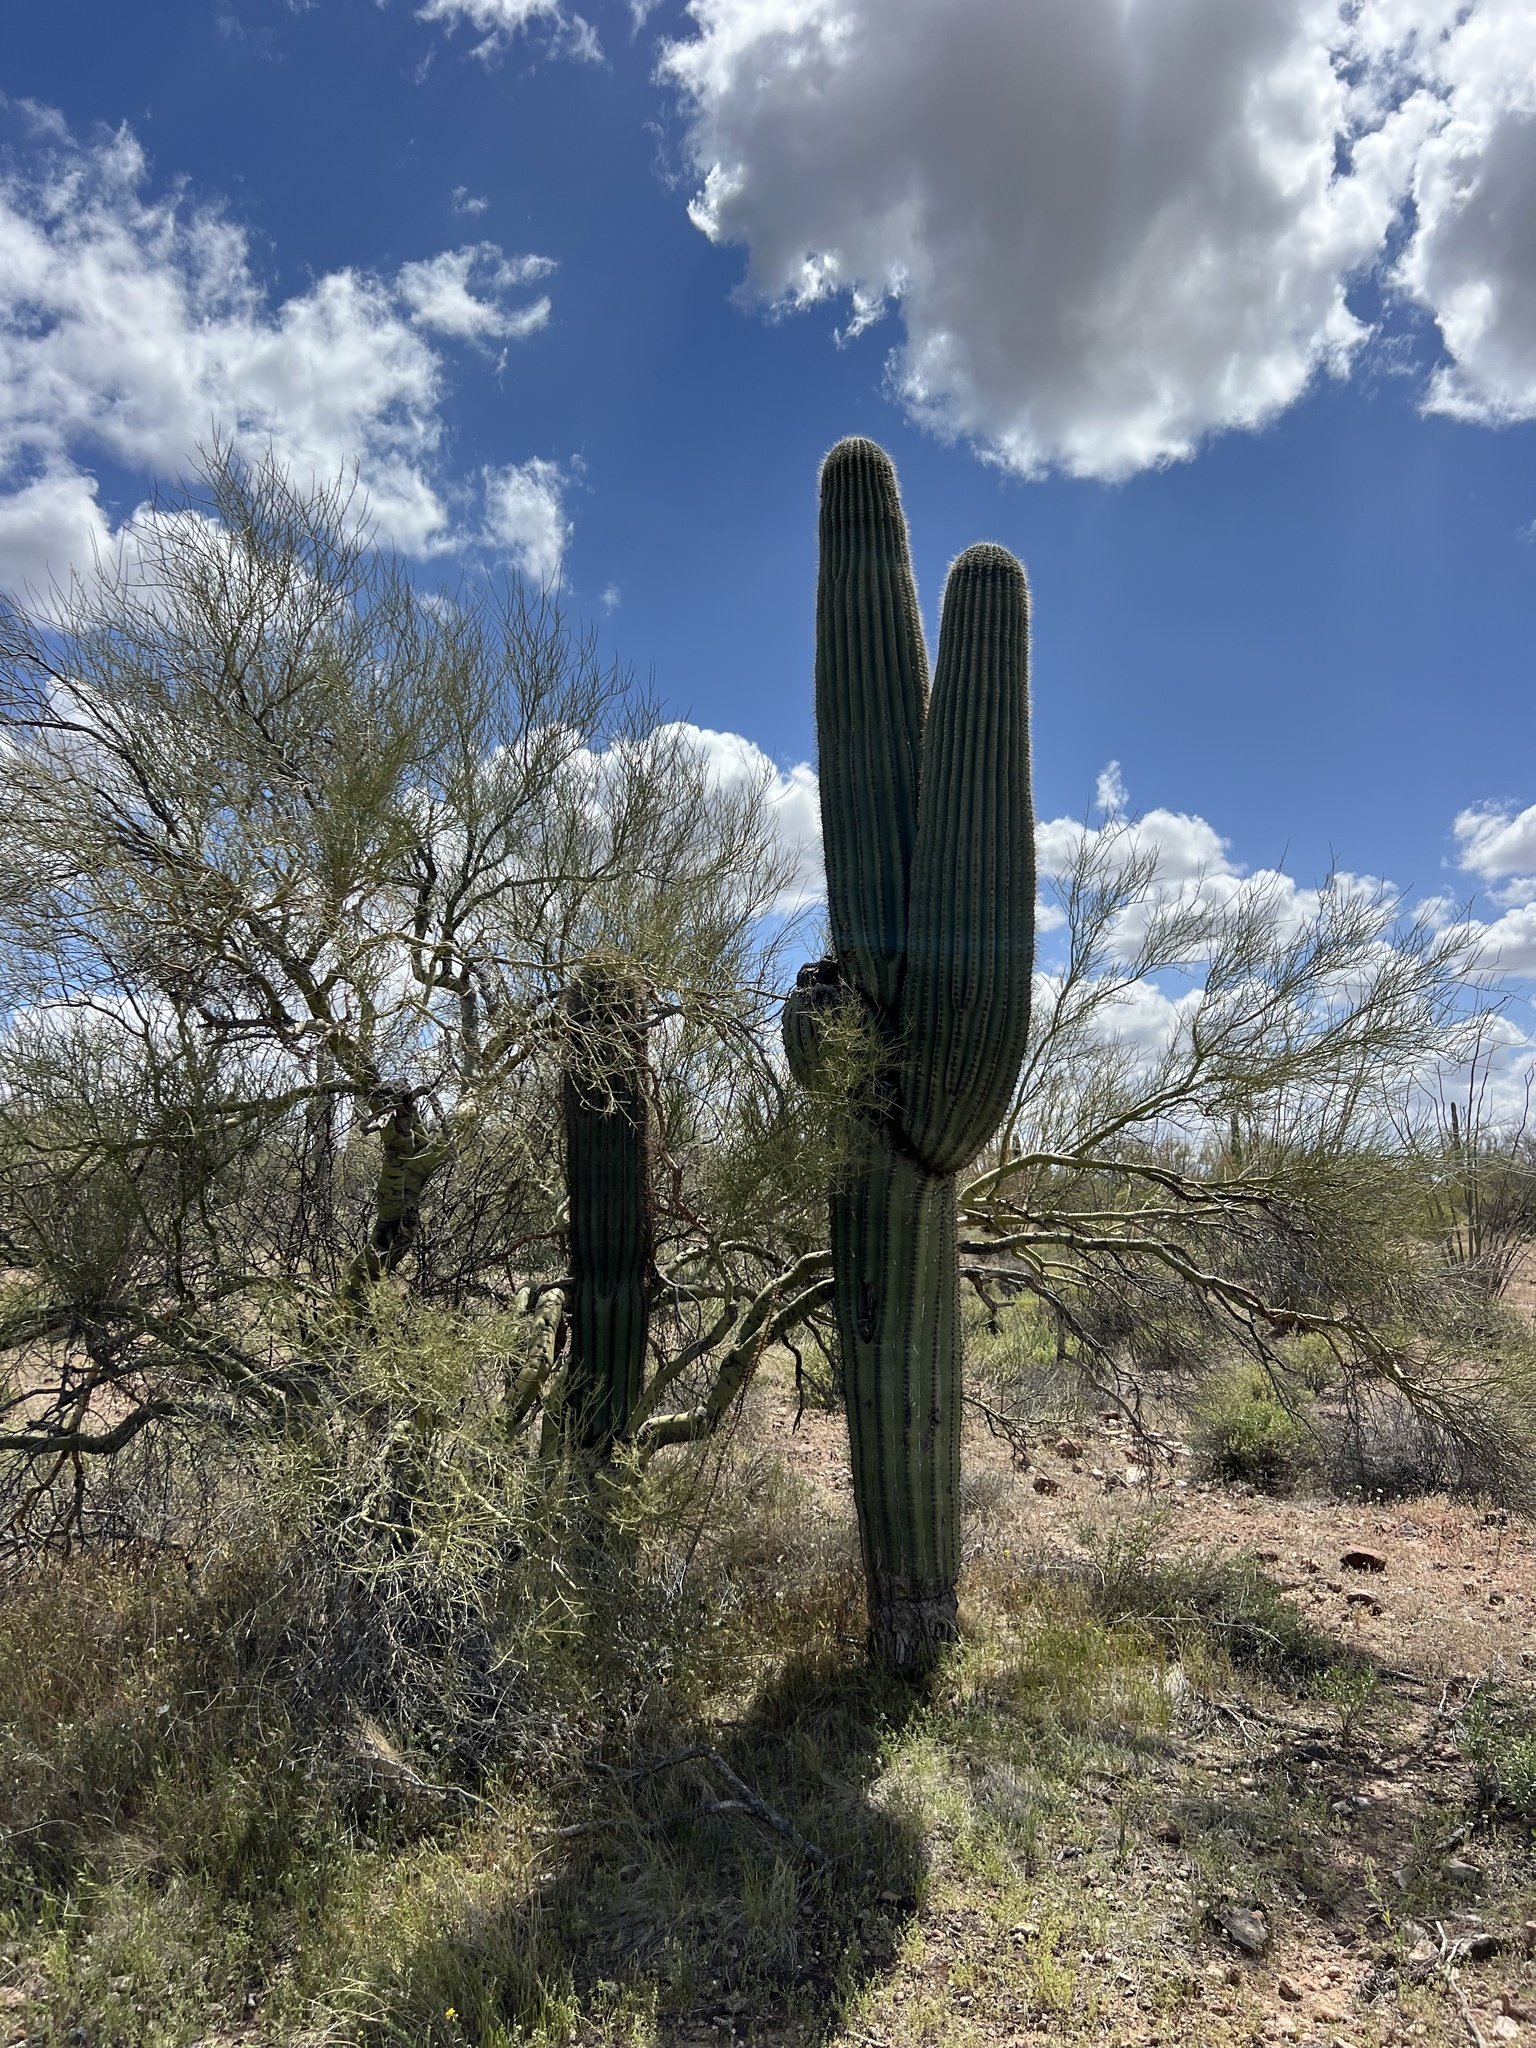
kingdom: Plantae
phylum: Tracheophyta
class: Magnoliopsida
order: Caryophyllales
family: Cactaceae
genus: Carnegiea
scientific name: Carnegiea gigantea
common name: Saguaro
